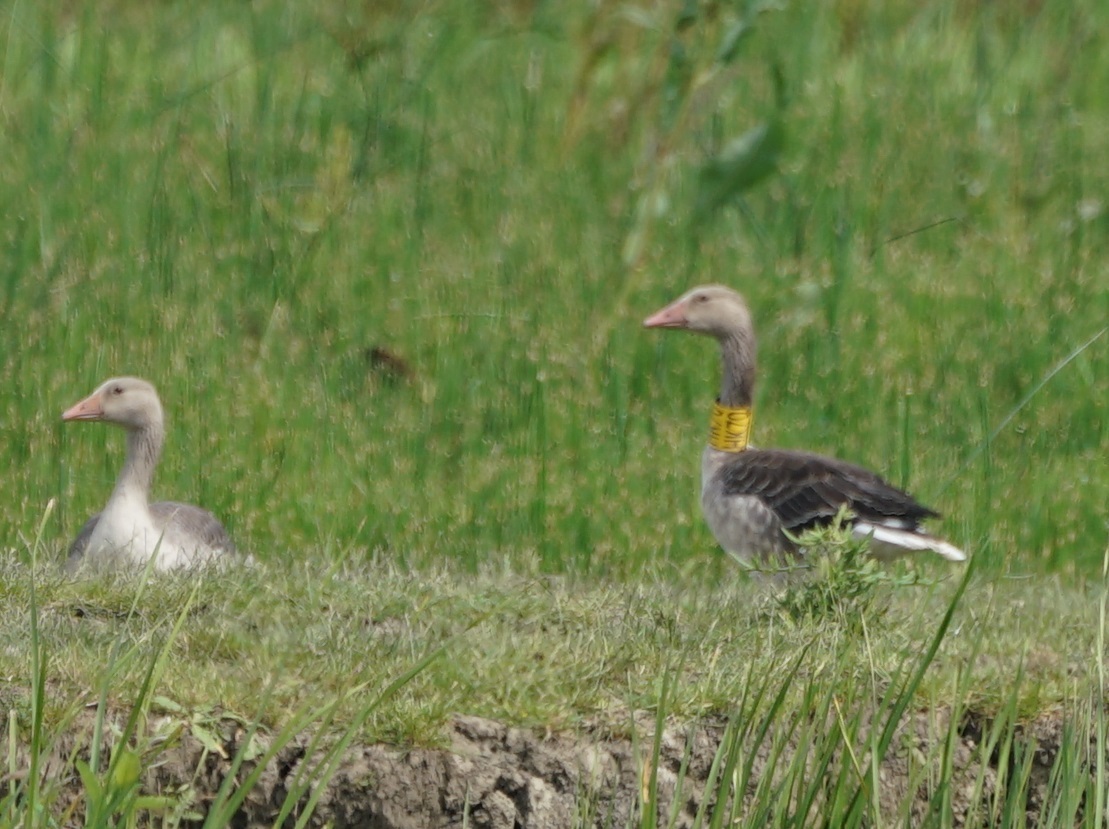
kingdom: Animalia
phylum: Chordata
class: Aves
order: Anseriformes
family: Anatidae
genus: Anser
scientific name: Anser anser
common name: Greylag goose
